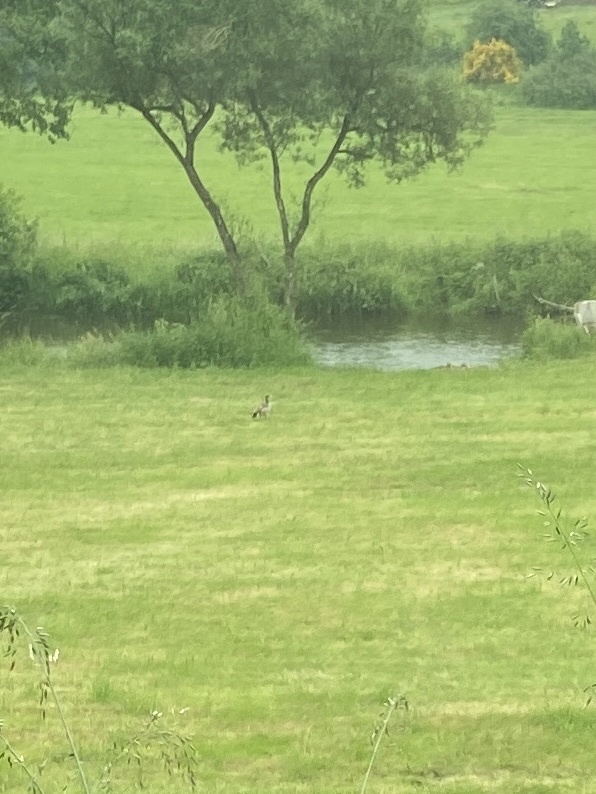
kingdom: Animalia
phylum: Chordata
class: Aves
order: Anseriformes
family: Anatidae
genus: Alopochen
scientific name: Alopochen aegyptiaca
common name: Egyptian goose
